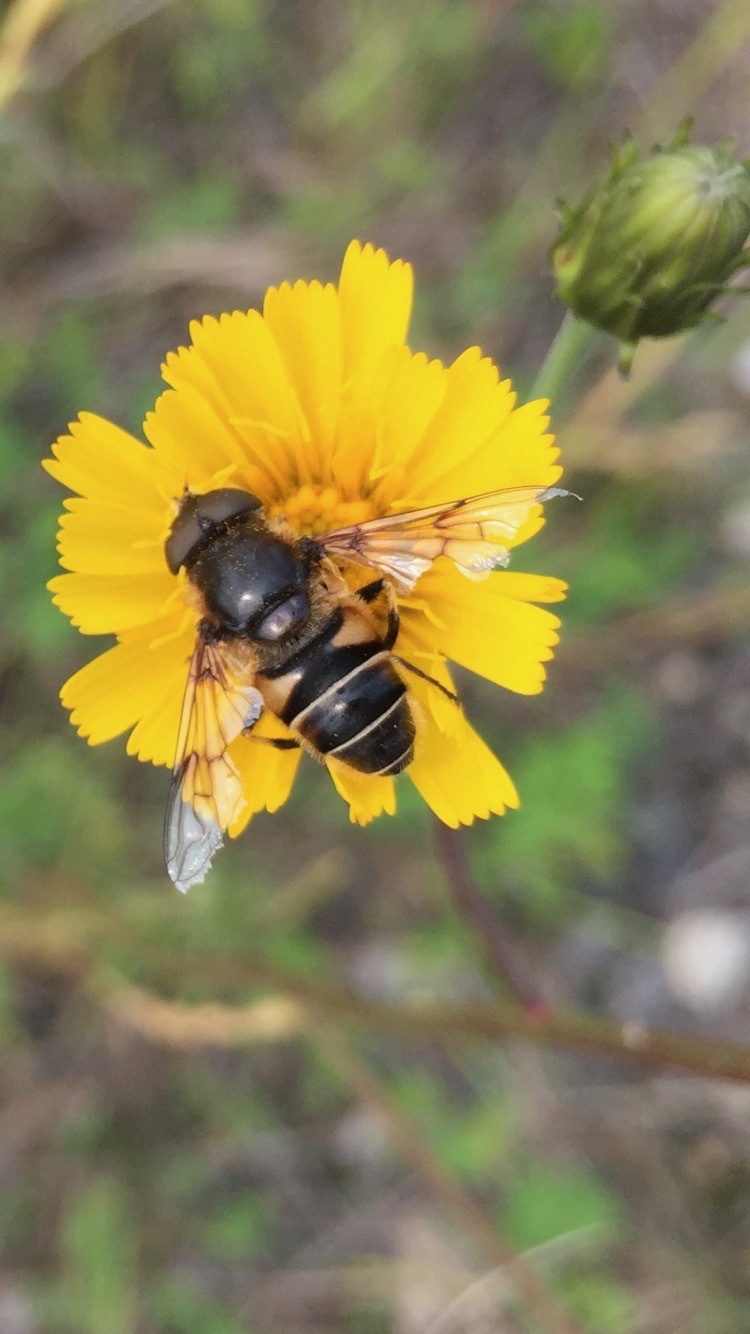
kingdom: Animalia
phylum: Arthropoda
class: Insecta
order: Diptera
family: Syrphidae
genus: Eristalis
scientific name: Eristalis nemorum
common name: Orange-spined drone fly
